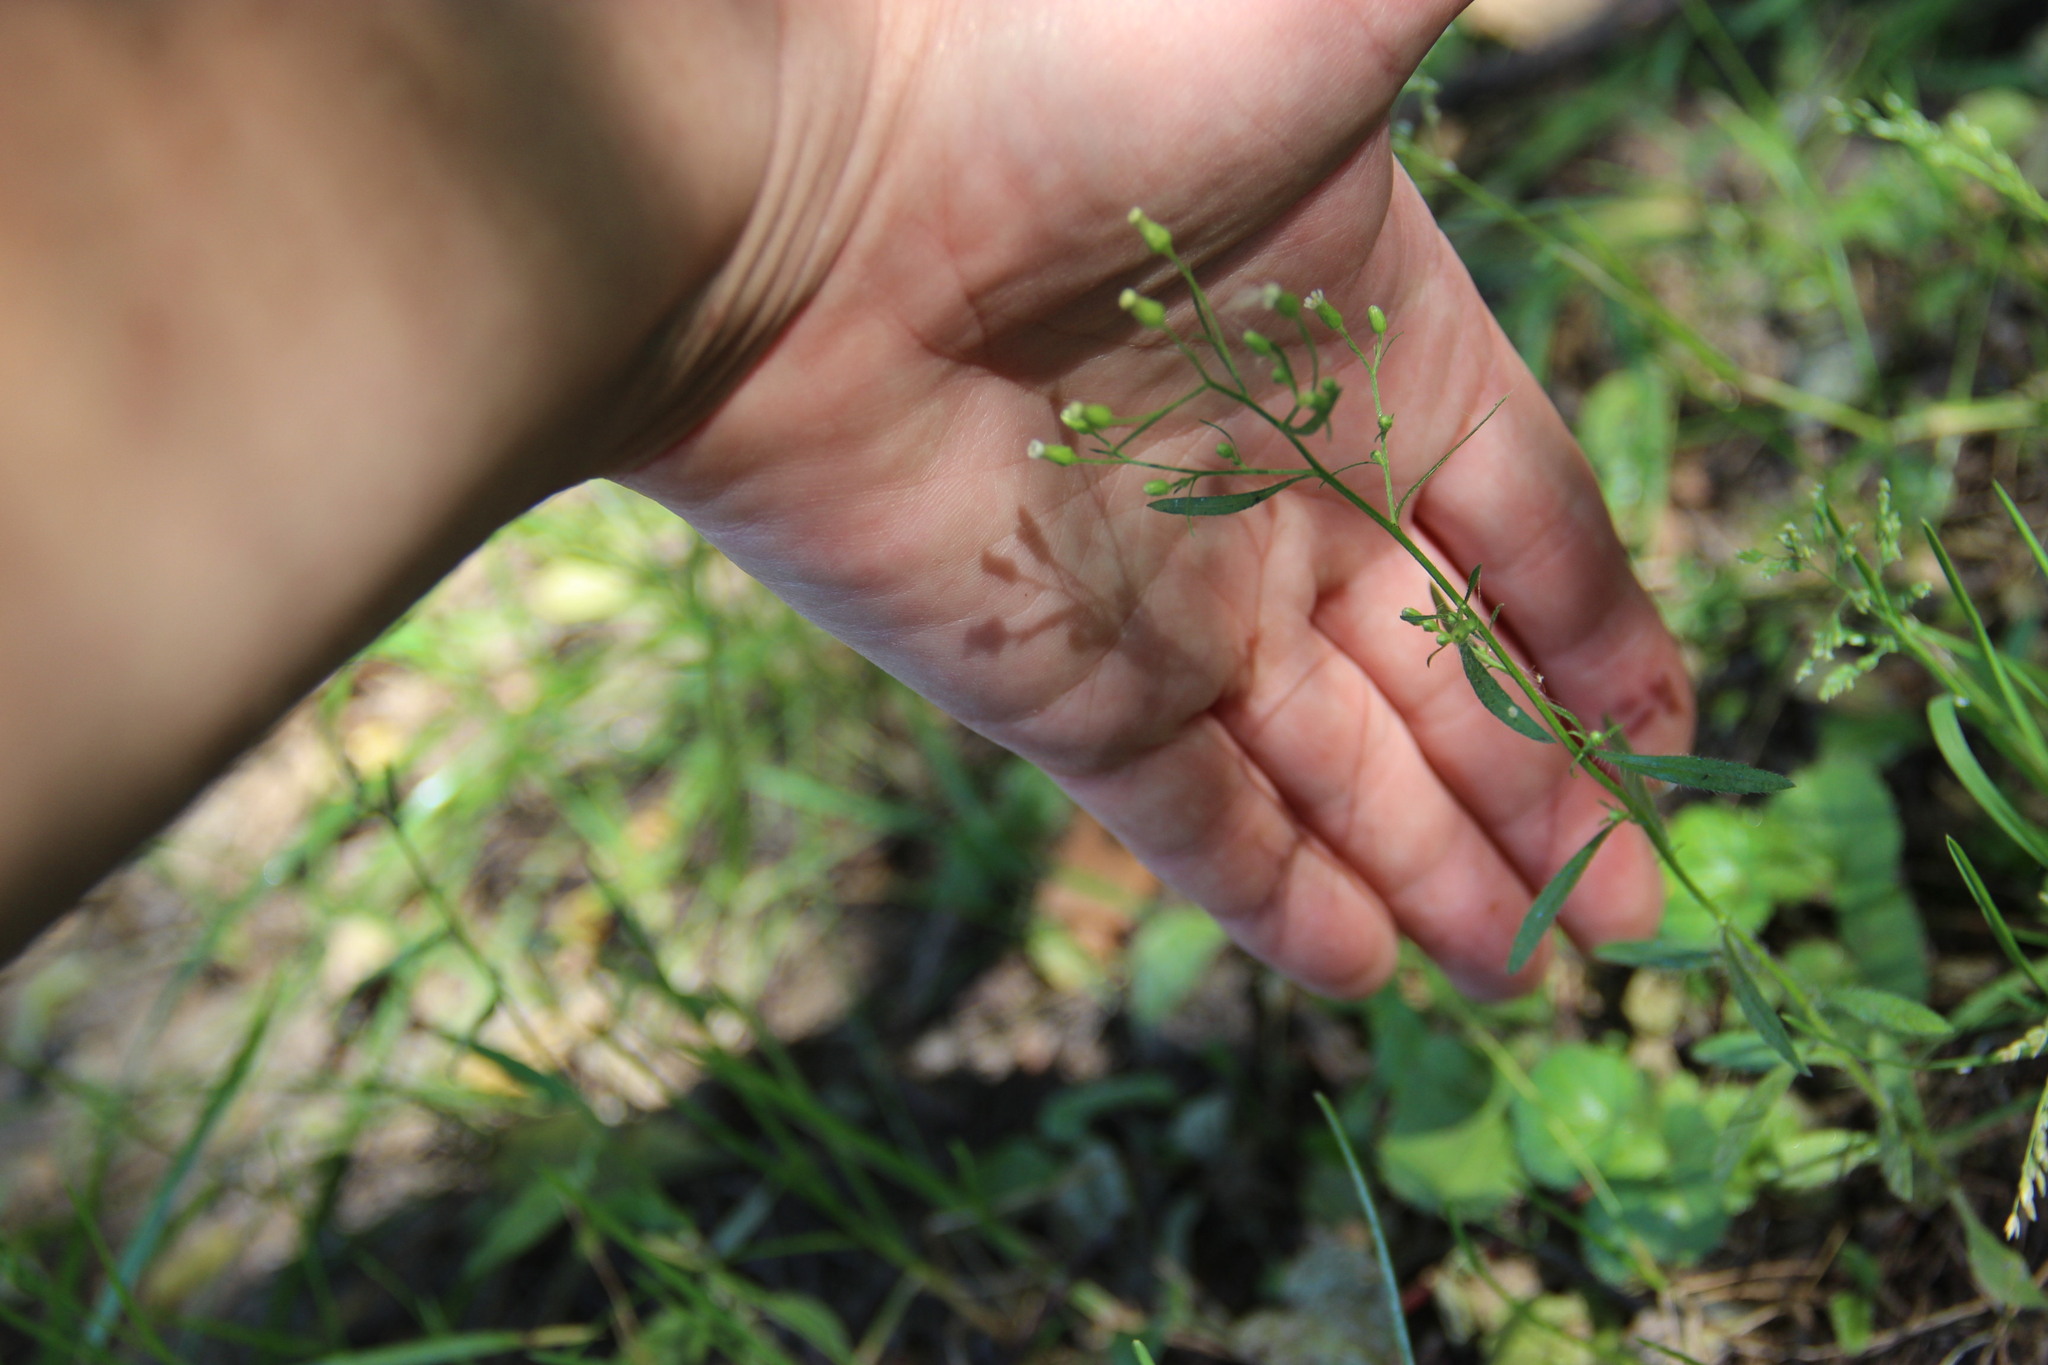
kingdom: Plantae
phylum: Tracheophyta
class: Magnoliopsida
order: Asterales
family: Asteraceae
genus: Erigeron
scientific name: Erigeron canadensis
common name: Canadian fleabane
